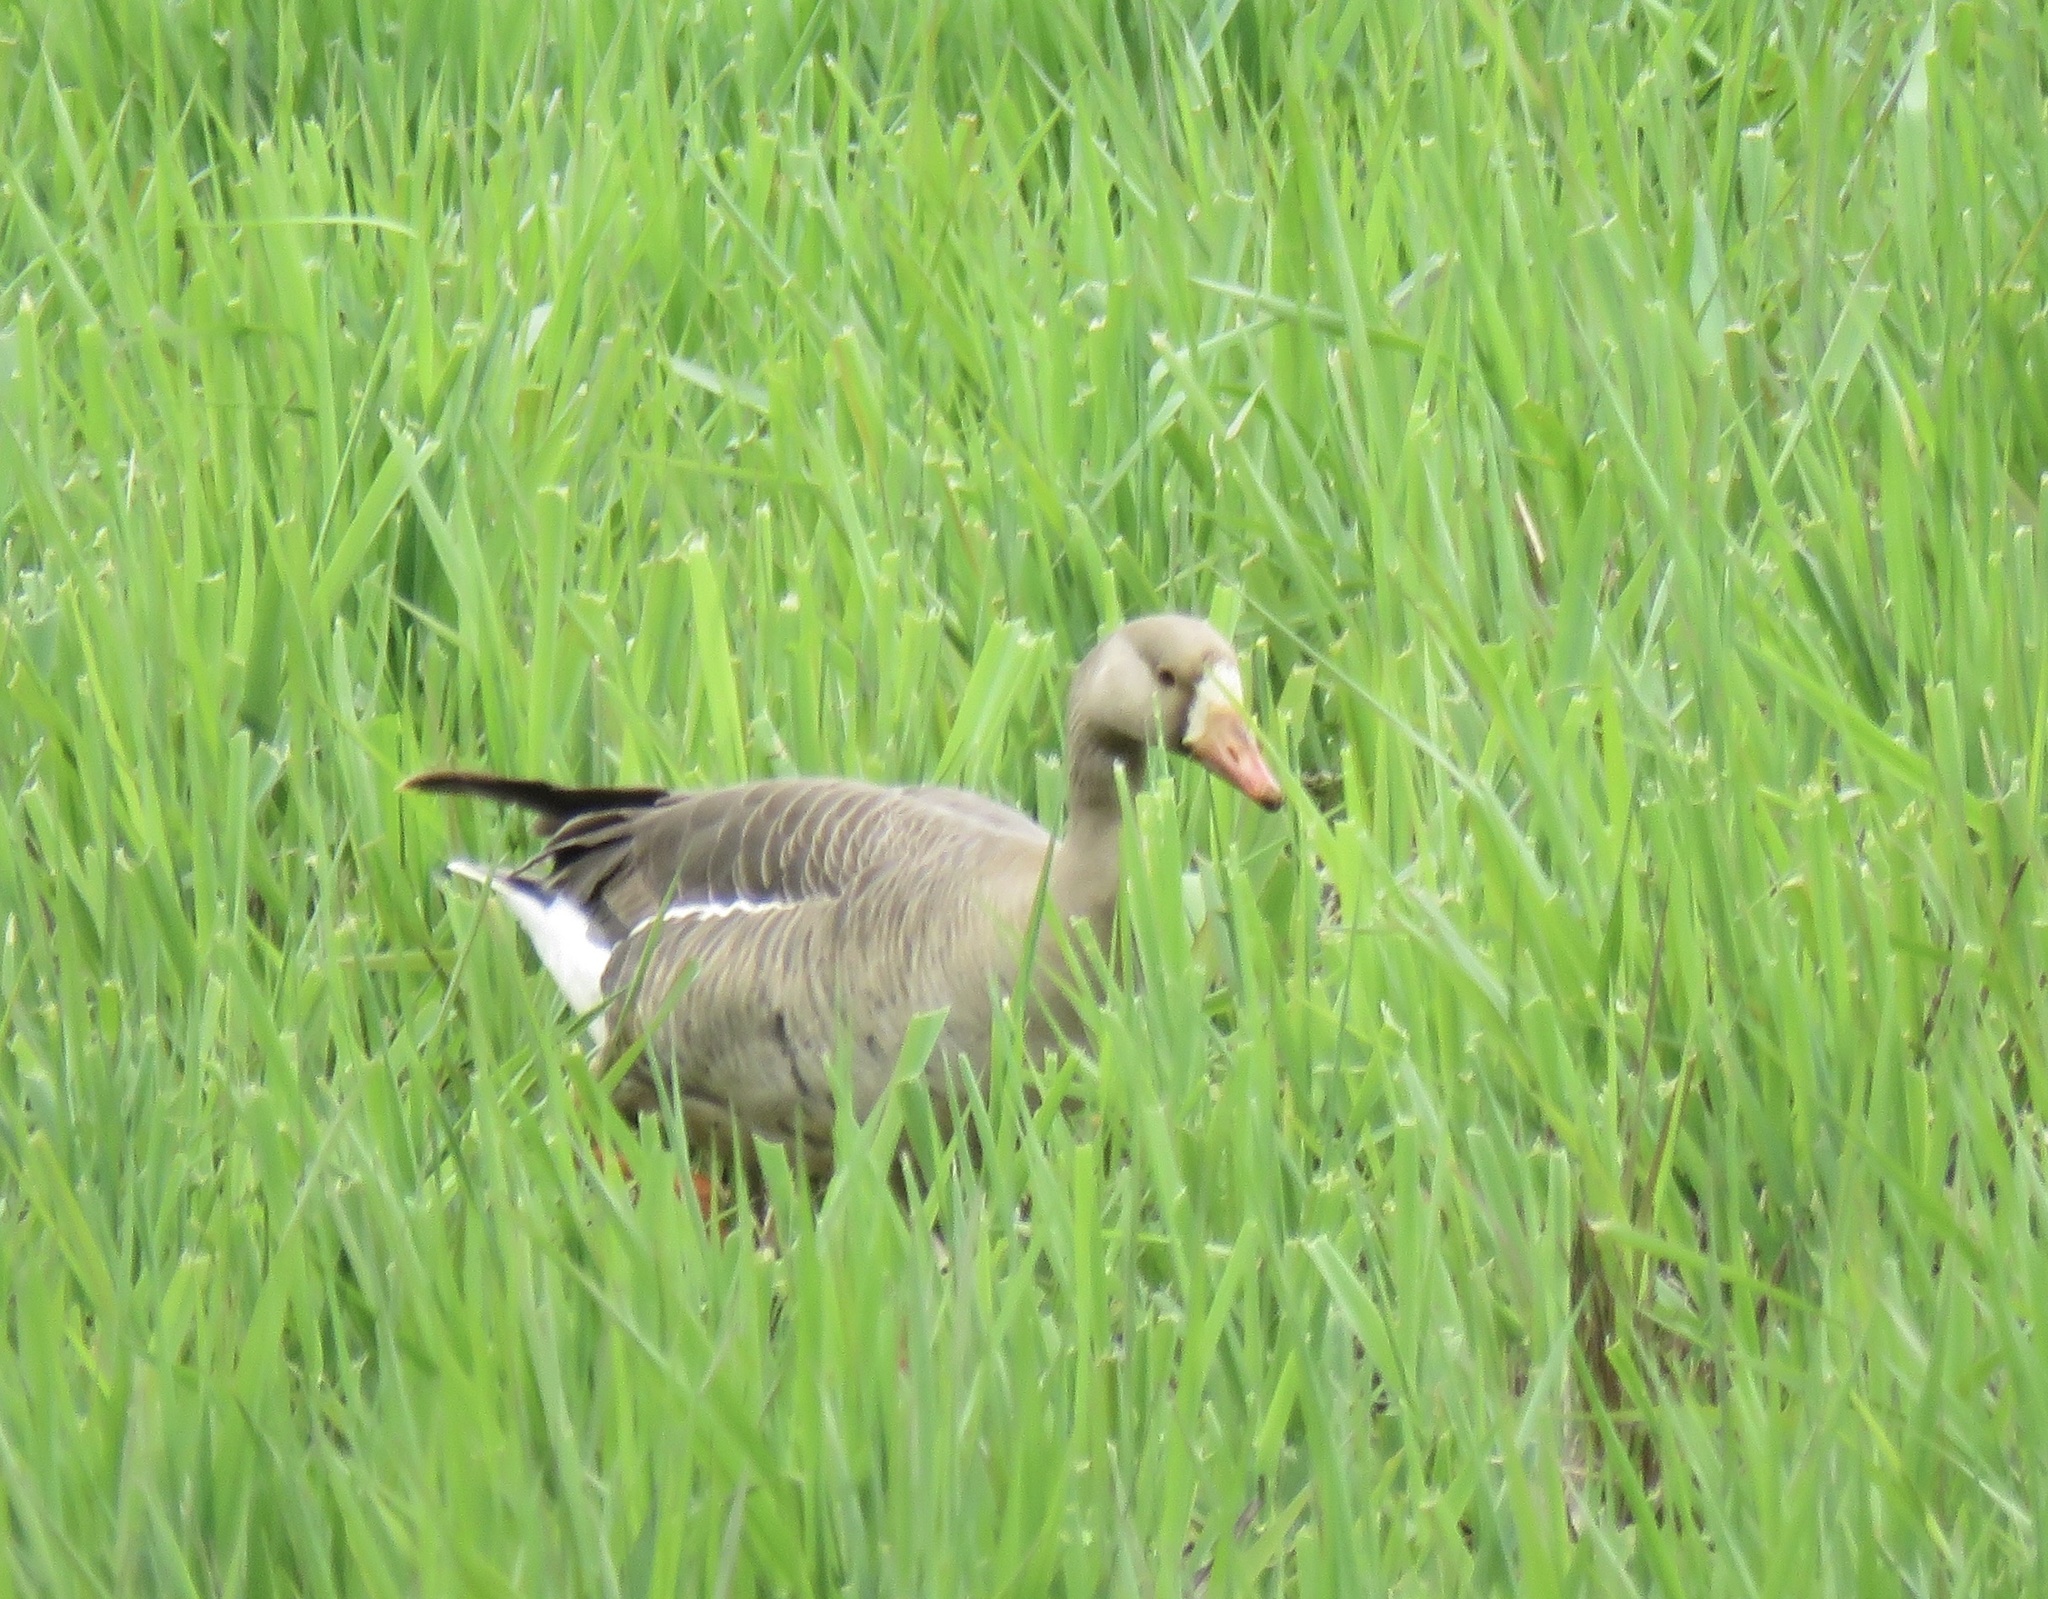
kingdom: Animalia
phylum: Chordata
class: Aves
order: Anseriformes
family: Anatidae
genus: Anser
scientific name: Anser albifrons
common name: Greater white-fronted goose
